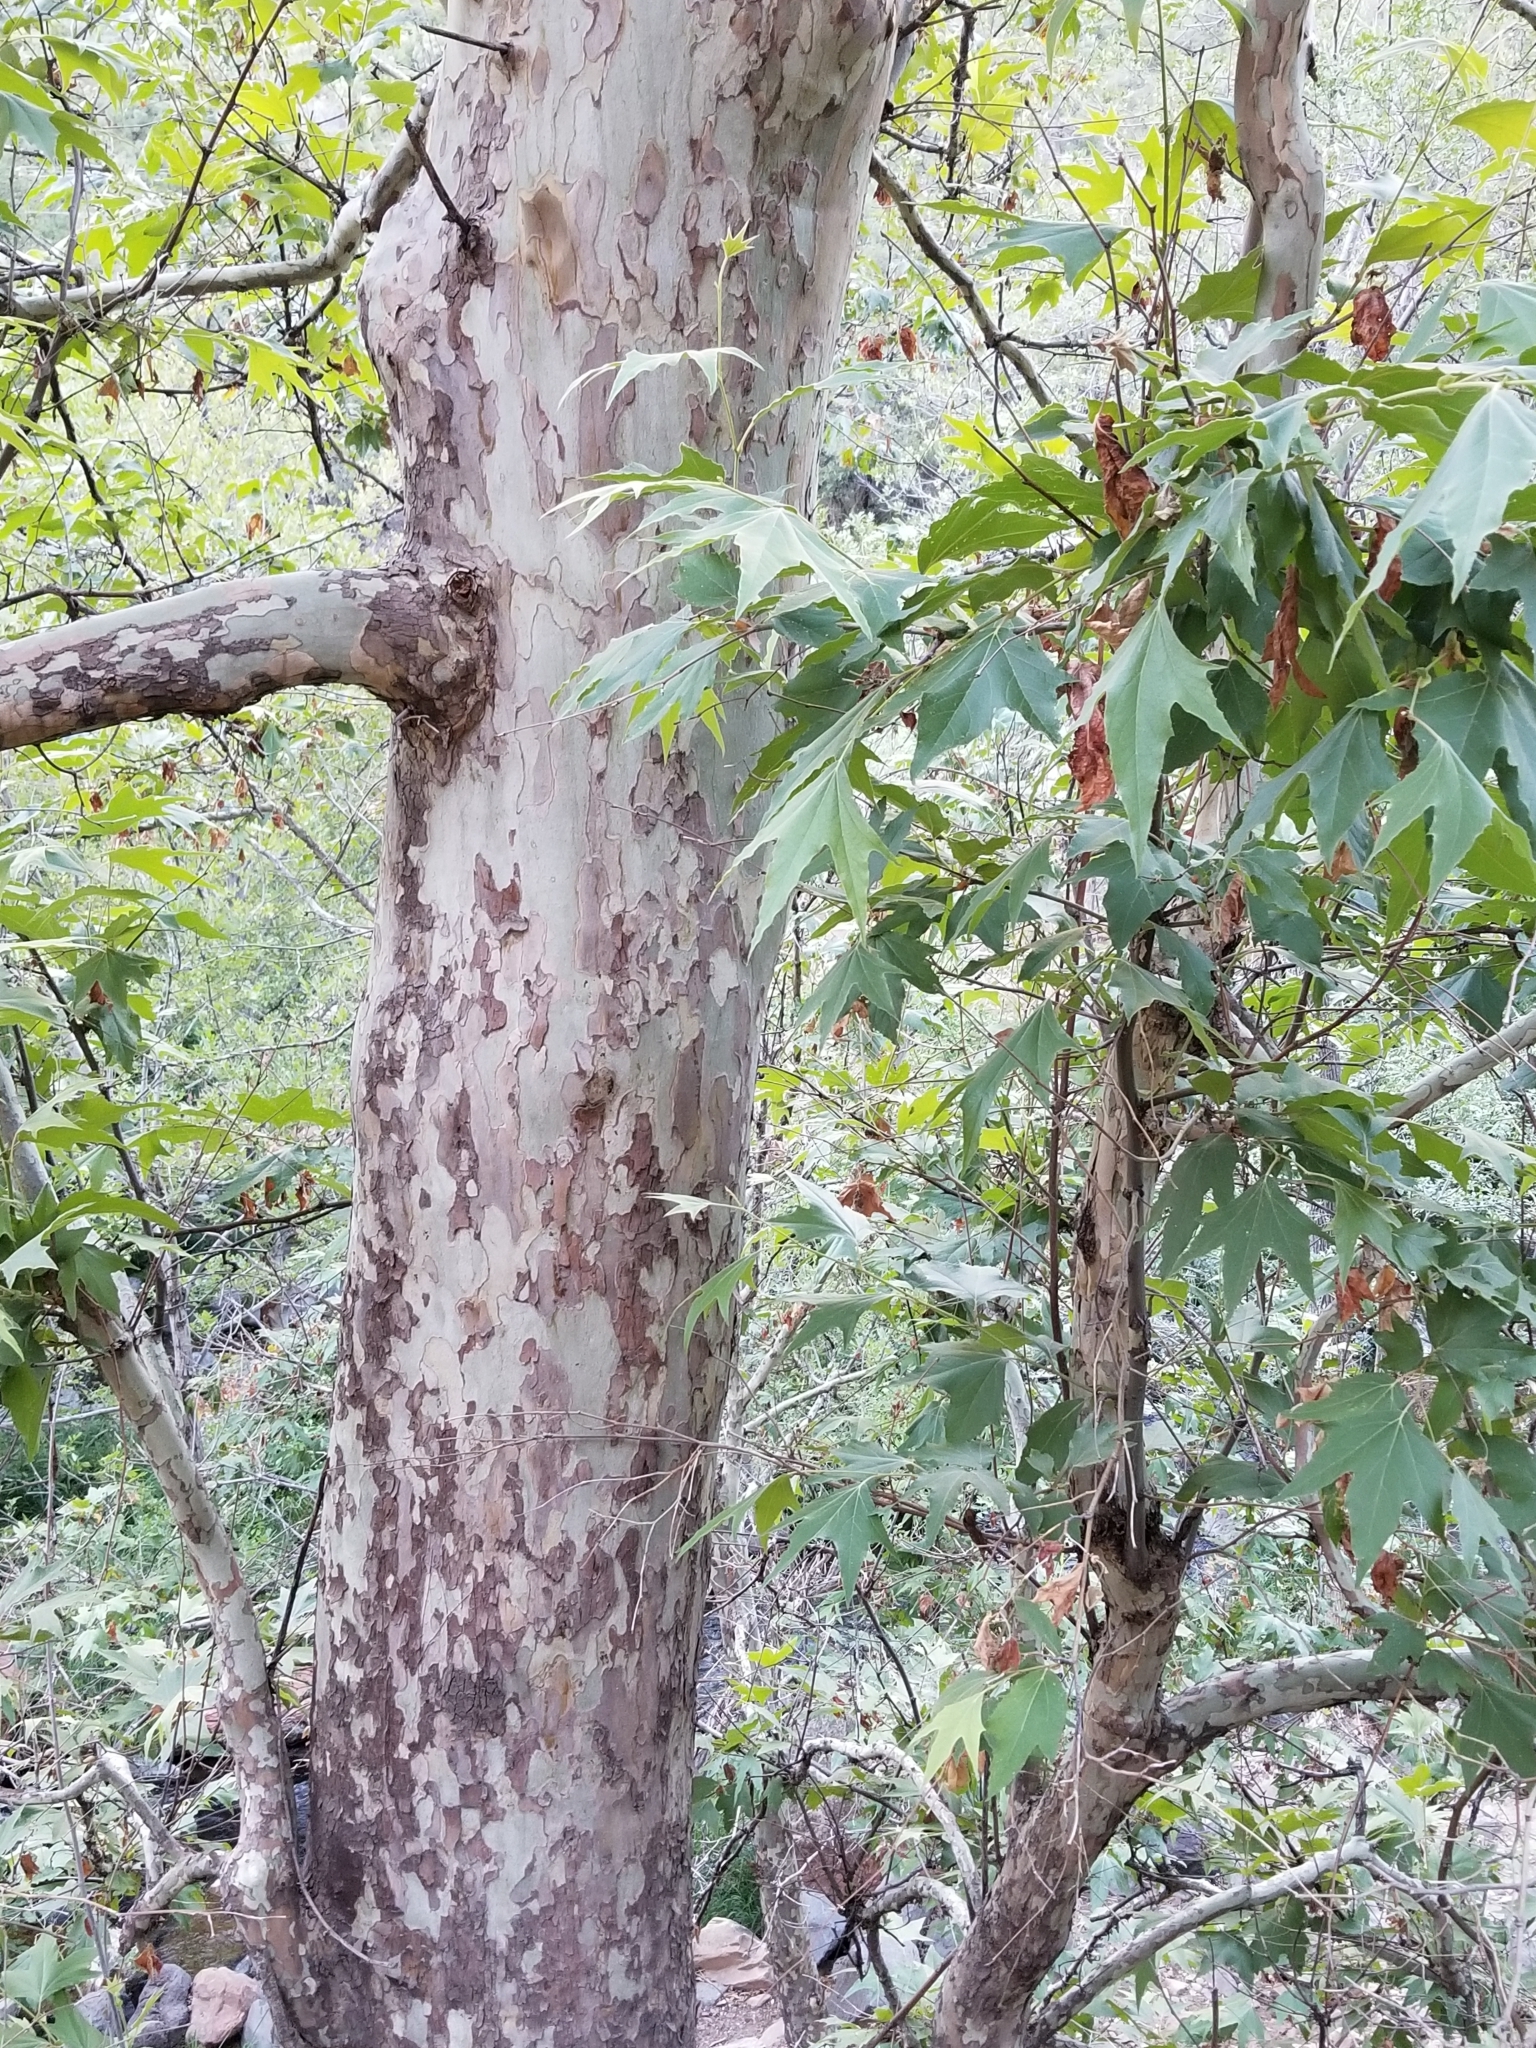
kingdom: Plantae
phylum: Tracheophyta
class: Magnoliopsida
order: Proteales
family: Platanaceae
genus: Platanus
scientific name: Platanus wrightii
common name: Arizona sycamore
